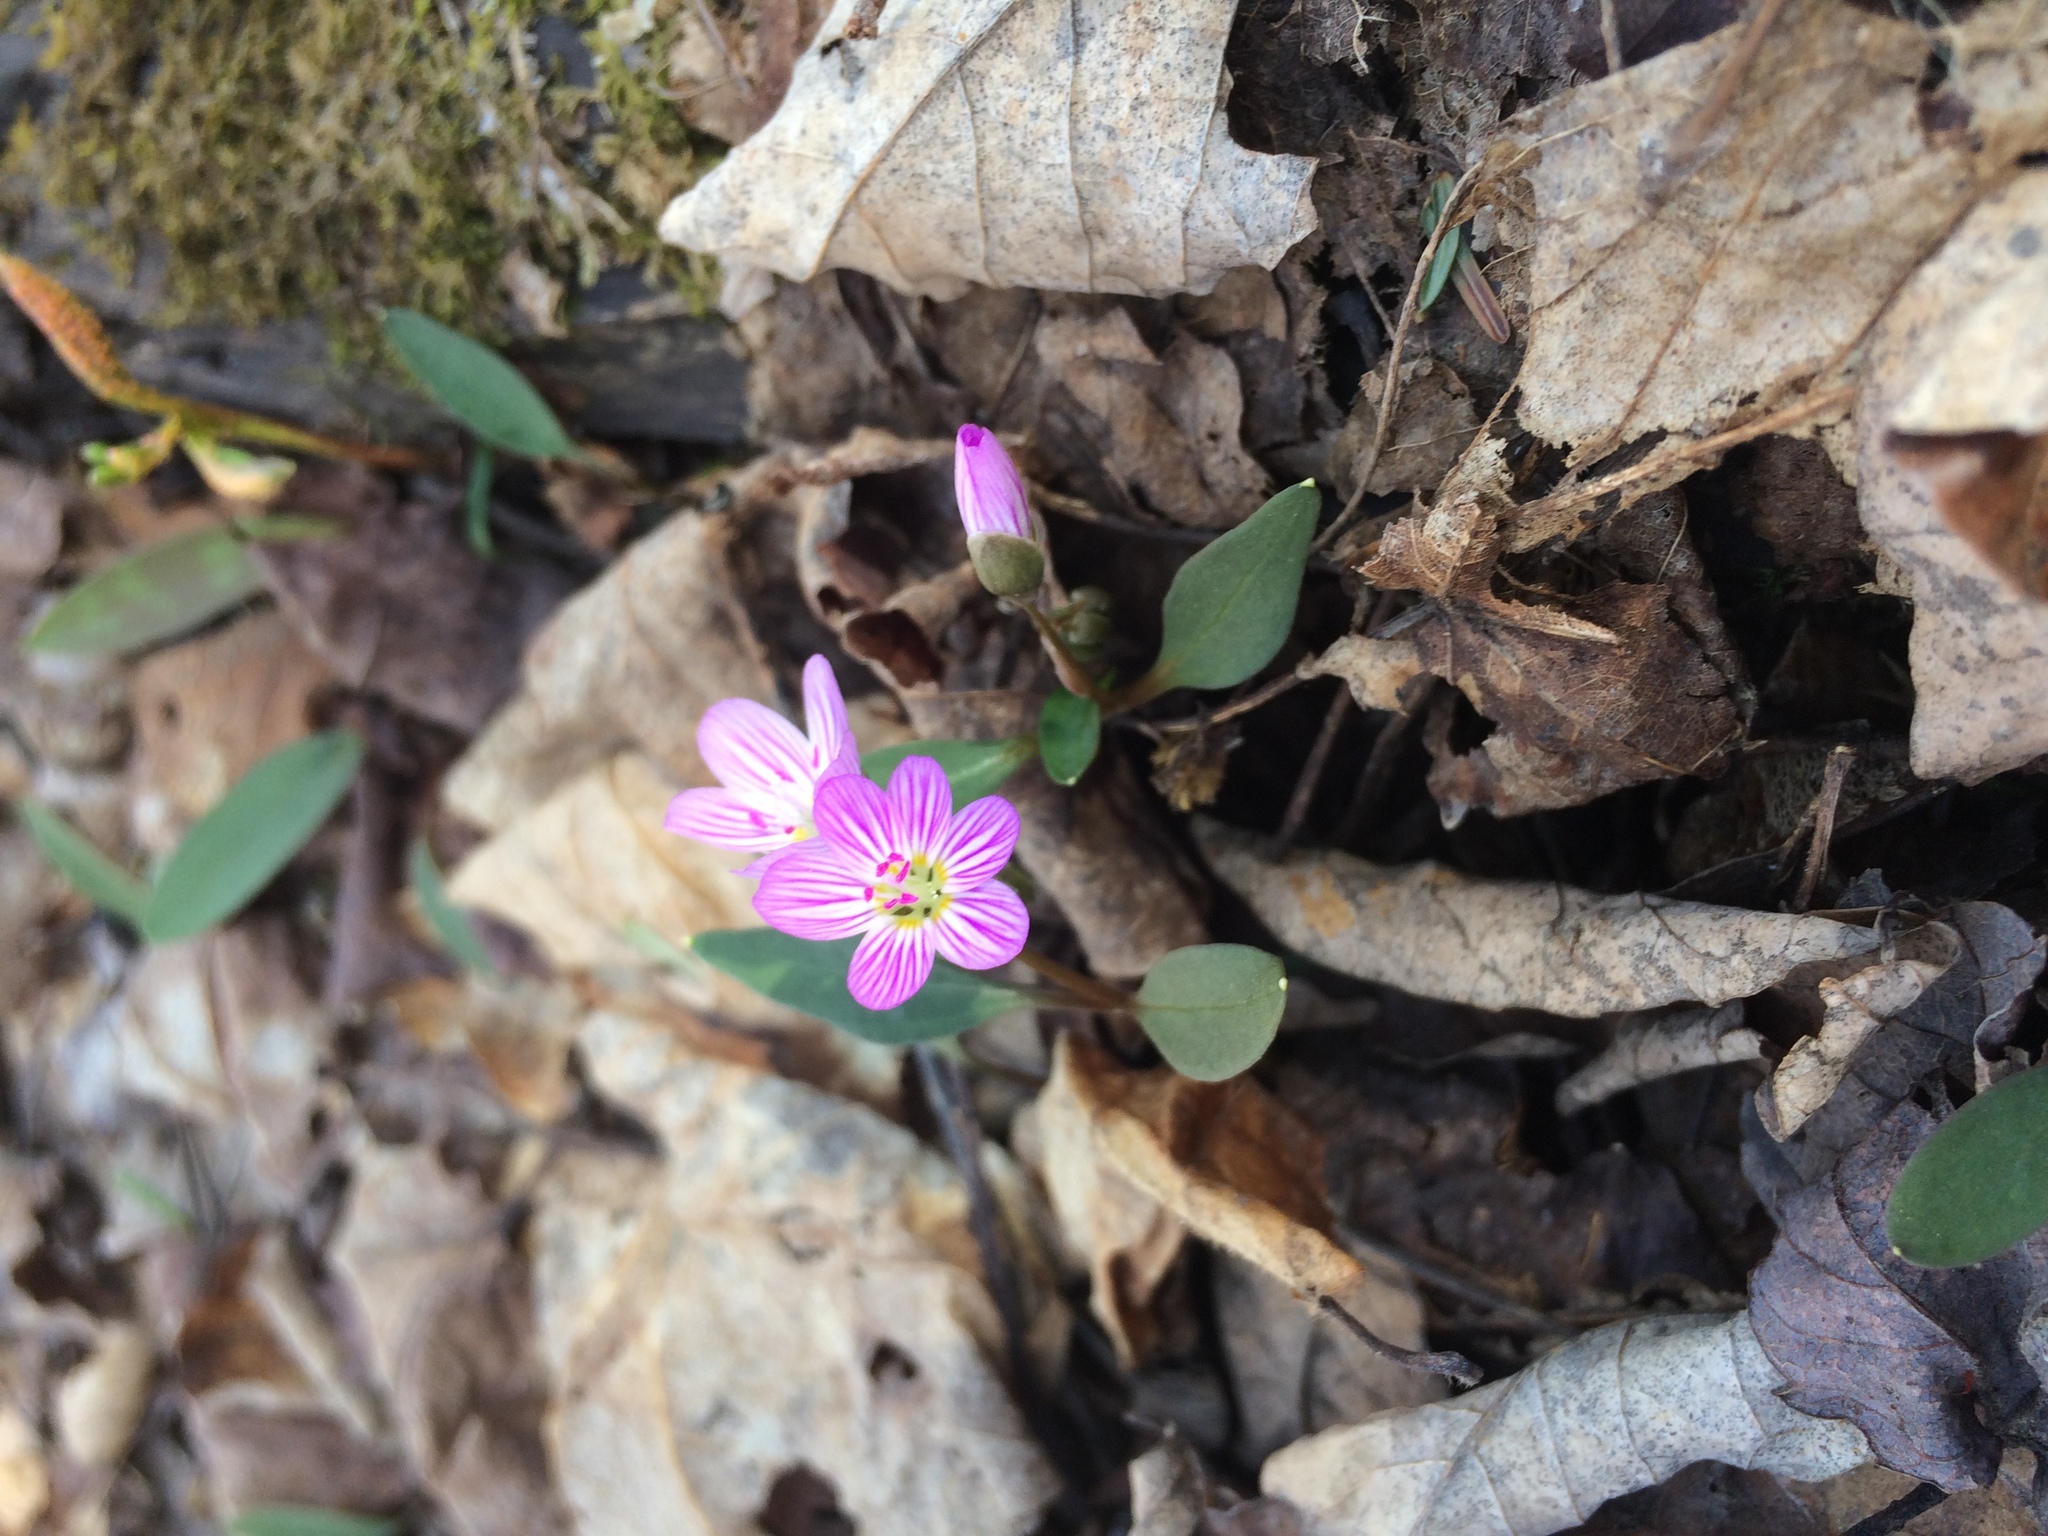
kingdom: Plantae
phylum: Tracheophyta
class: Magnoliopsida
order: Caryophyllales
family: Montiaceae
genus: Claytonia
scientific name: Claytonia caroliniana
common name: Carolina spring beauty
